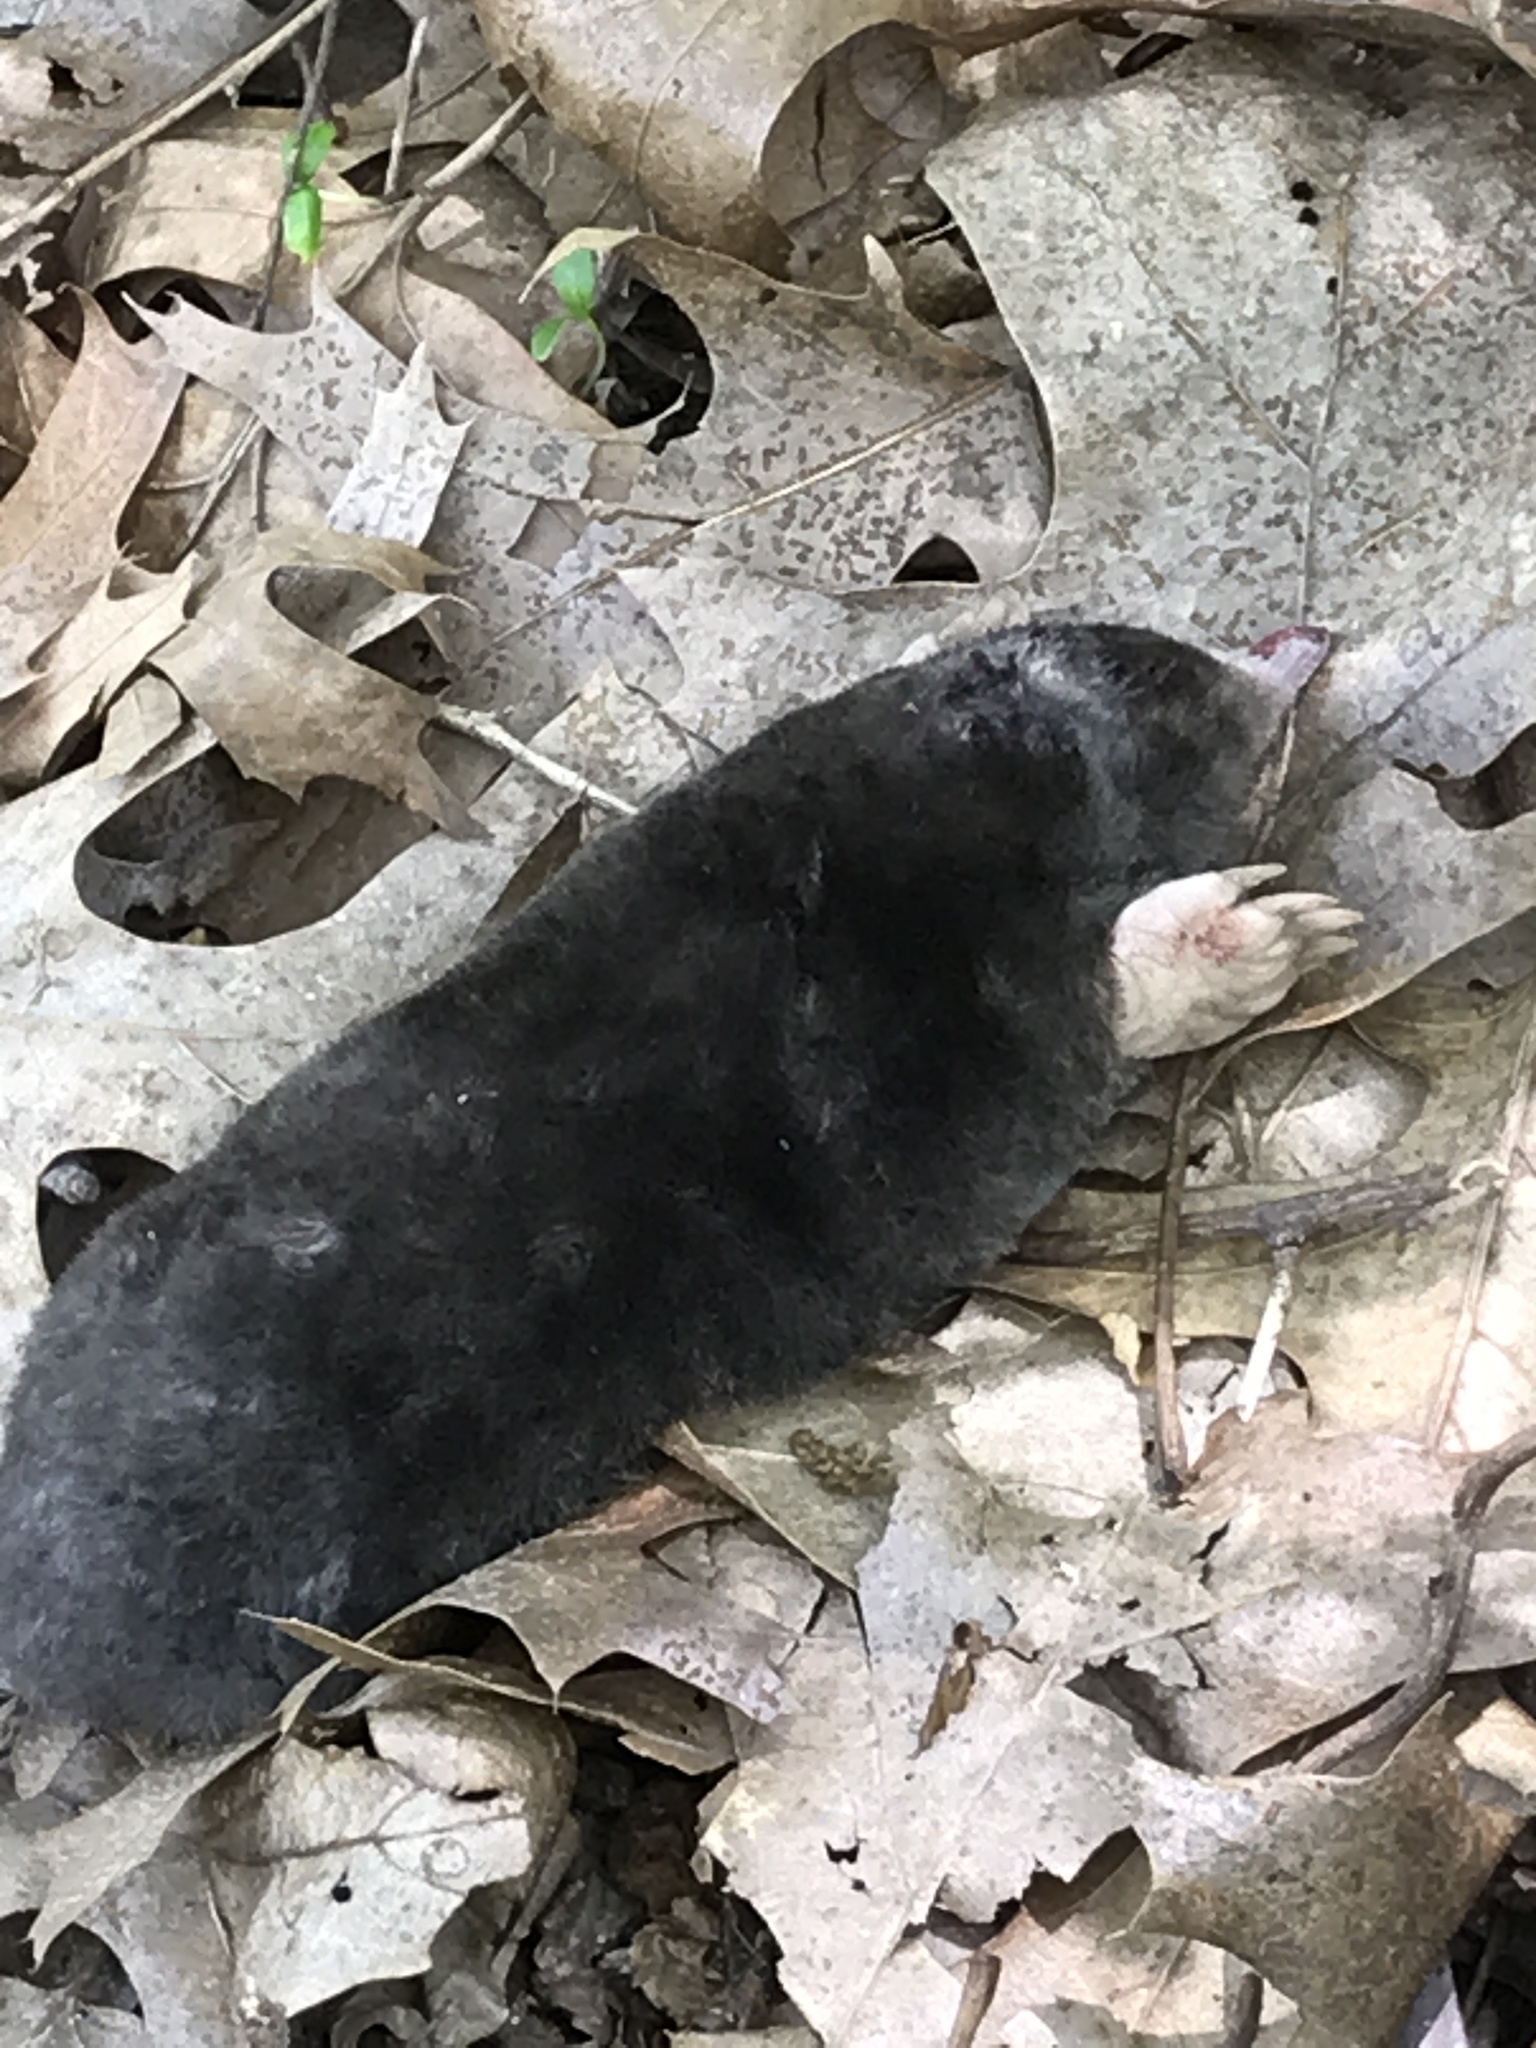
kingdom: Animalia
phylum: Chordata
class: Mammalia
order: Soricomorpha
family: Talpidae
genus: Scalopus
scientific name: Scalopus aquaticus
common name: Eastern mole
